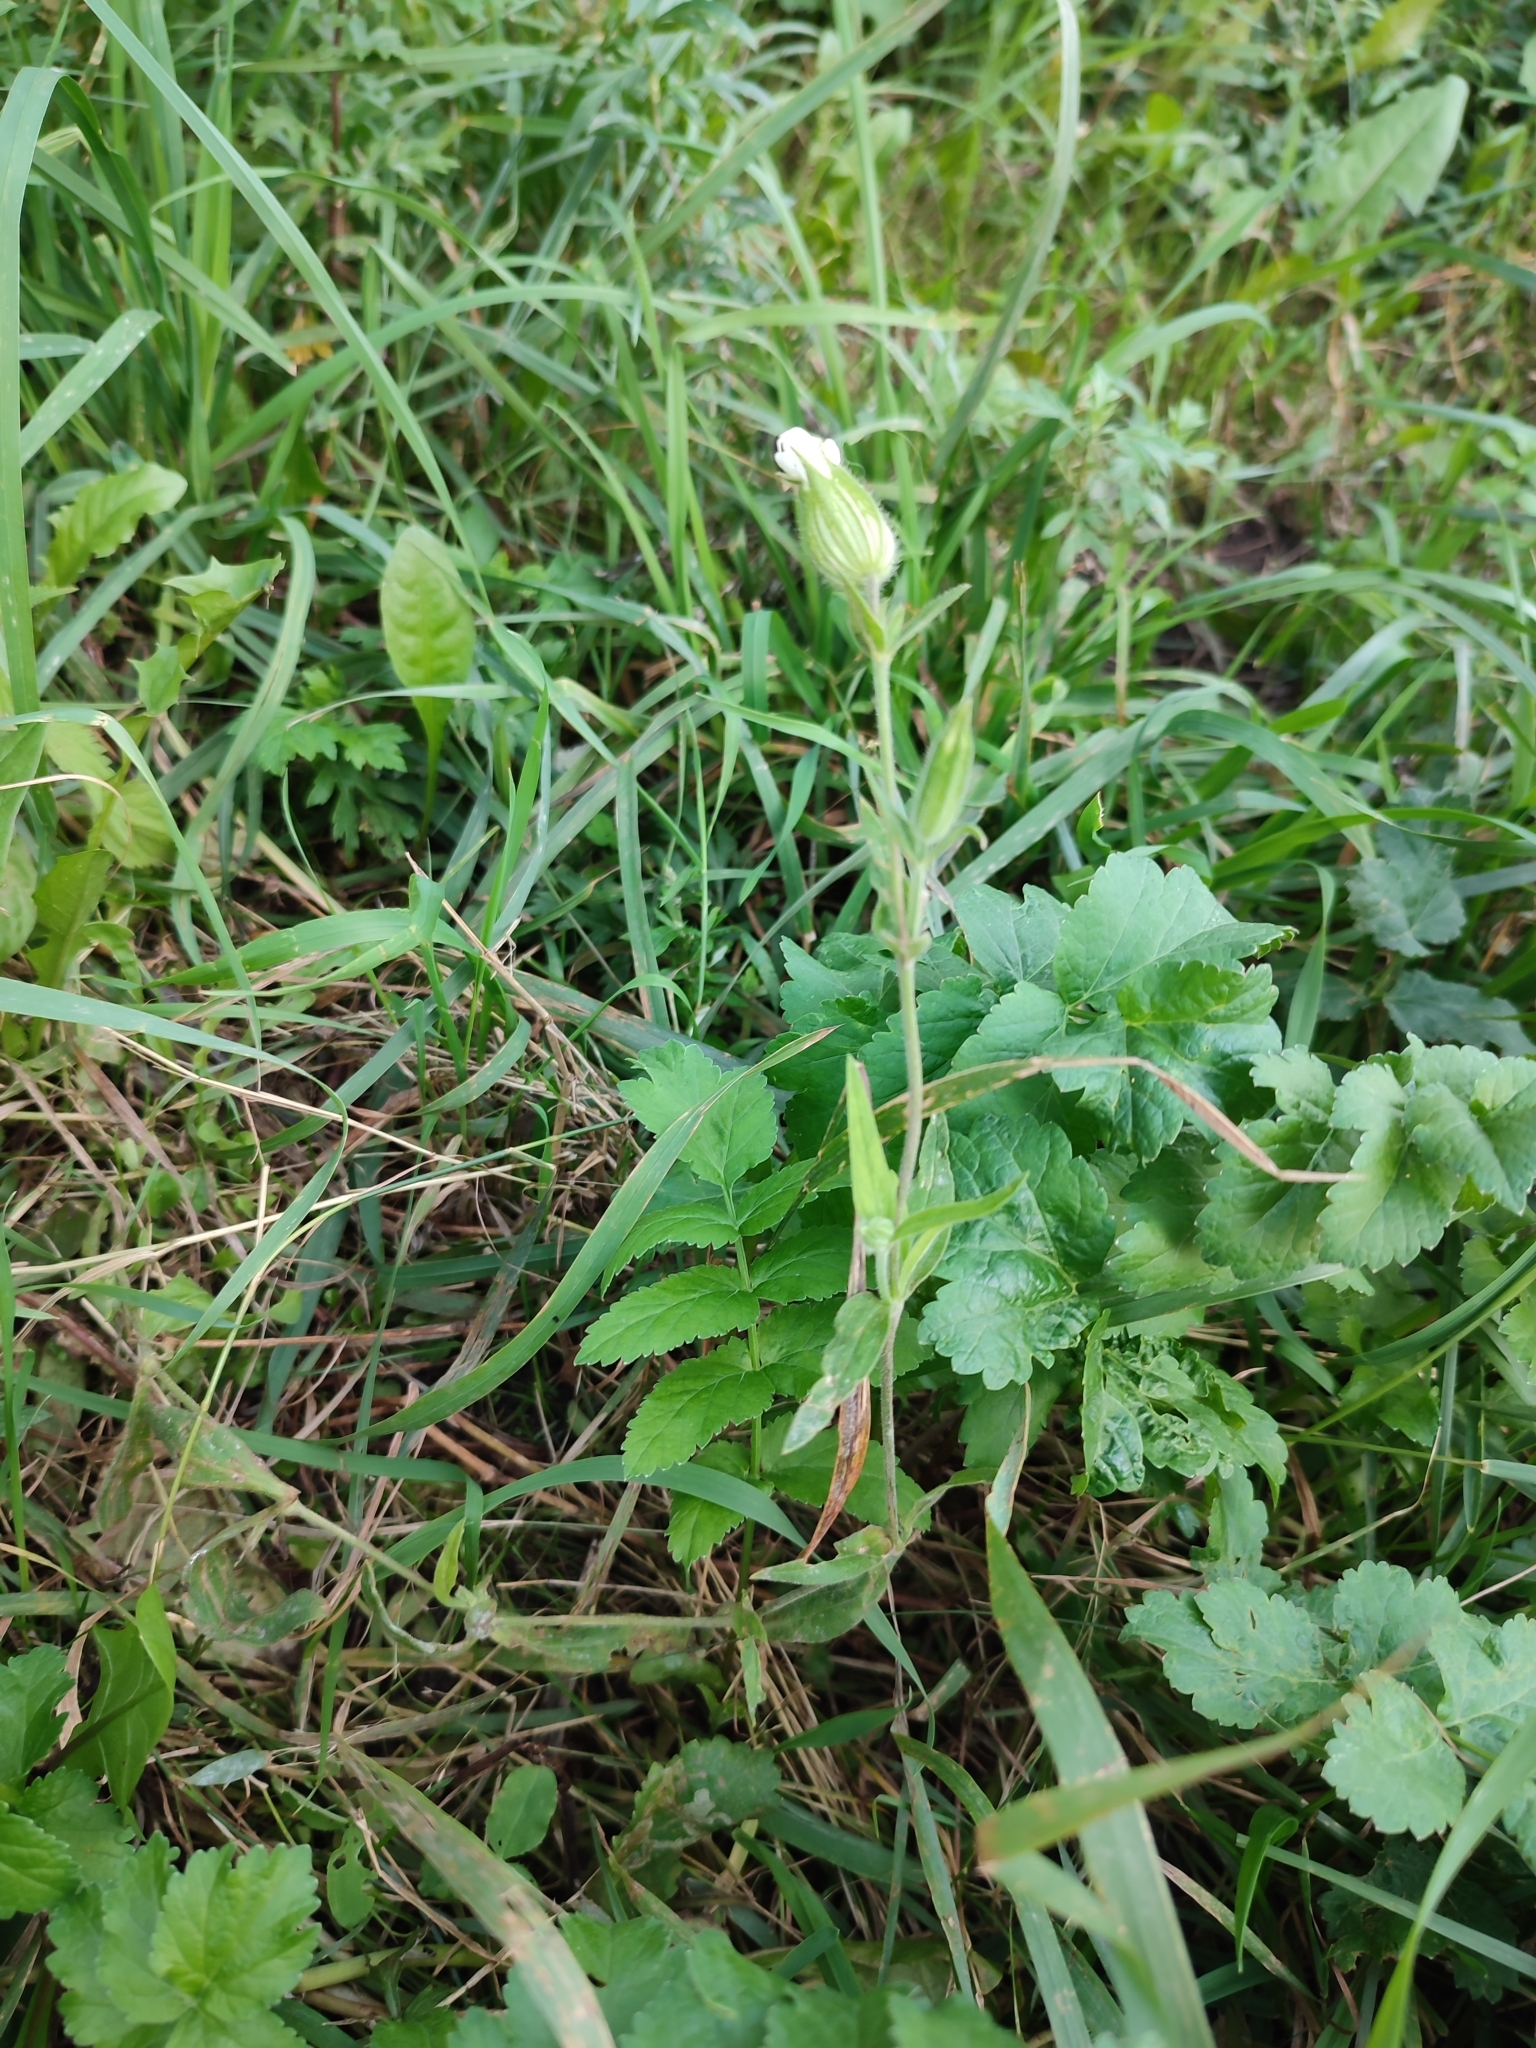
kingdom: Plantae
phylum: Tracheophyta
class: Magnoliopsida
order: Caryophyllales
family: Caryophyllaceae
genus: Silene
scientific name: Silene latifolia
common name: White campion
